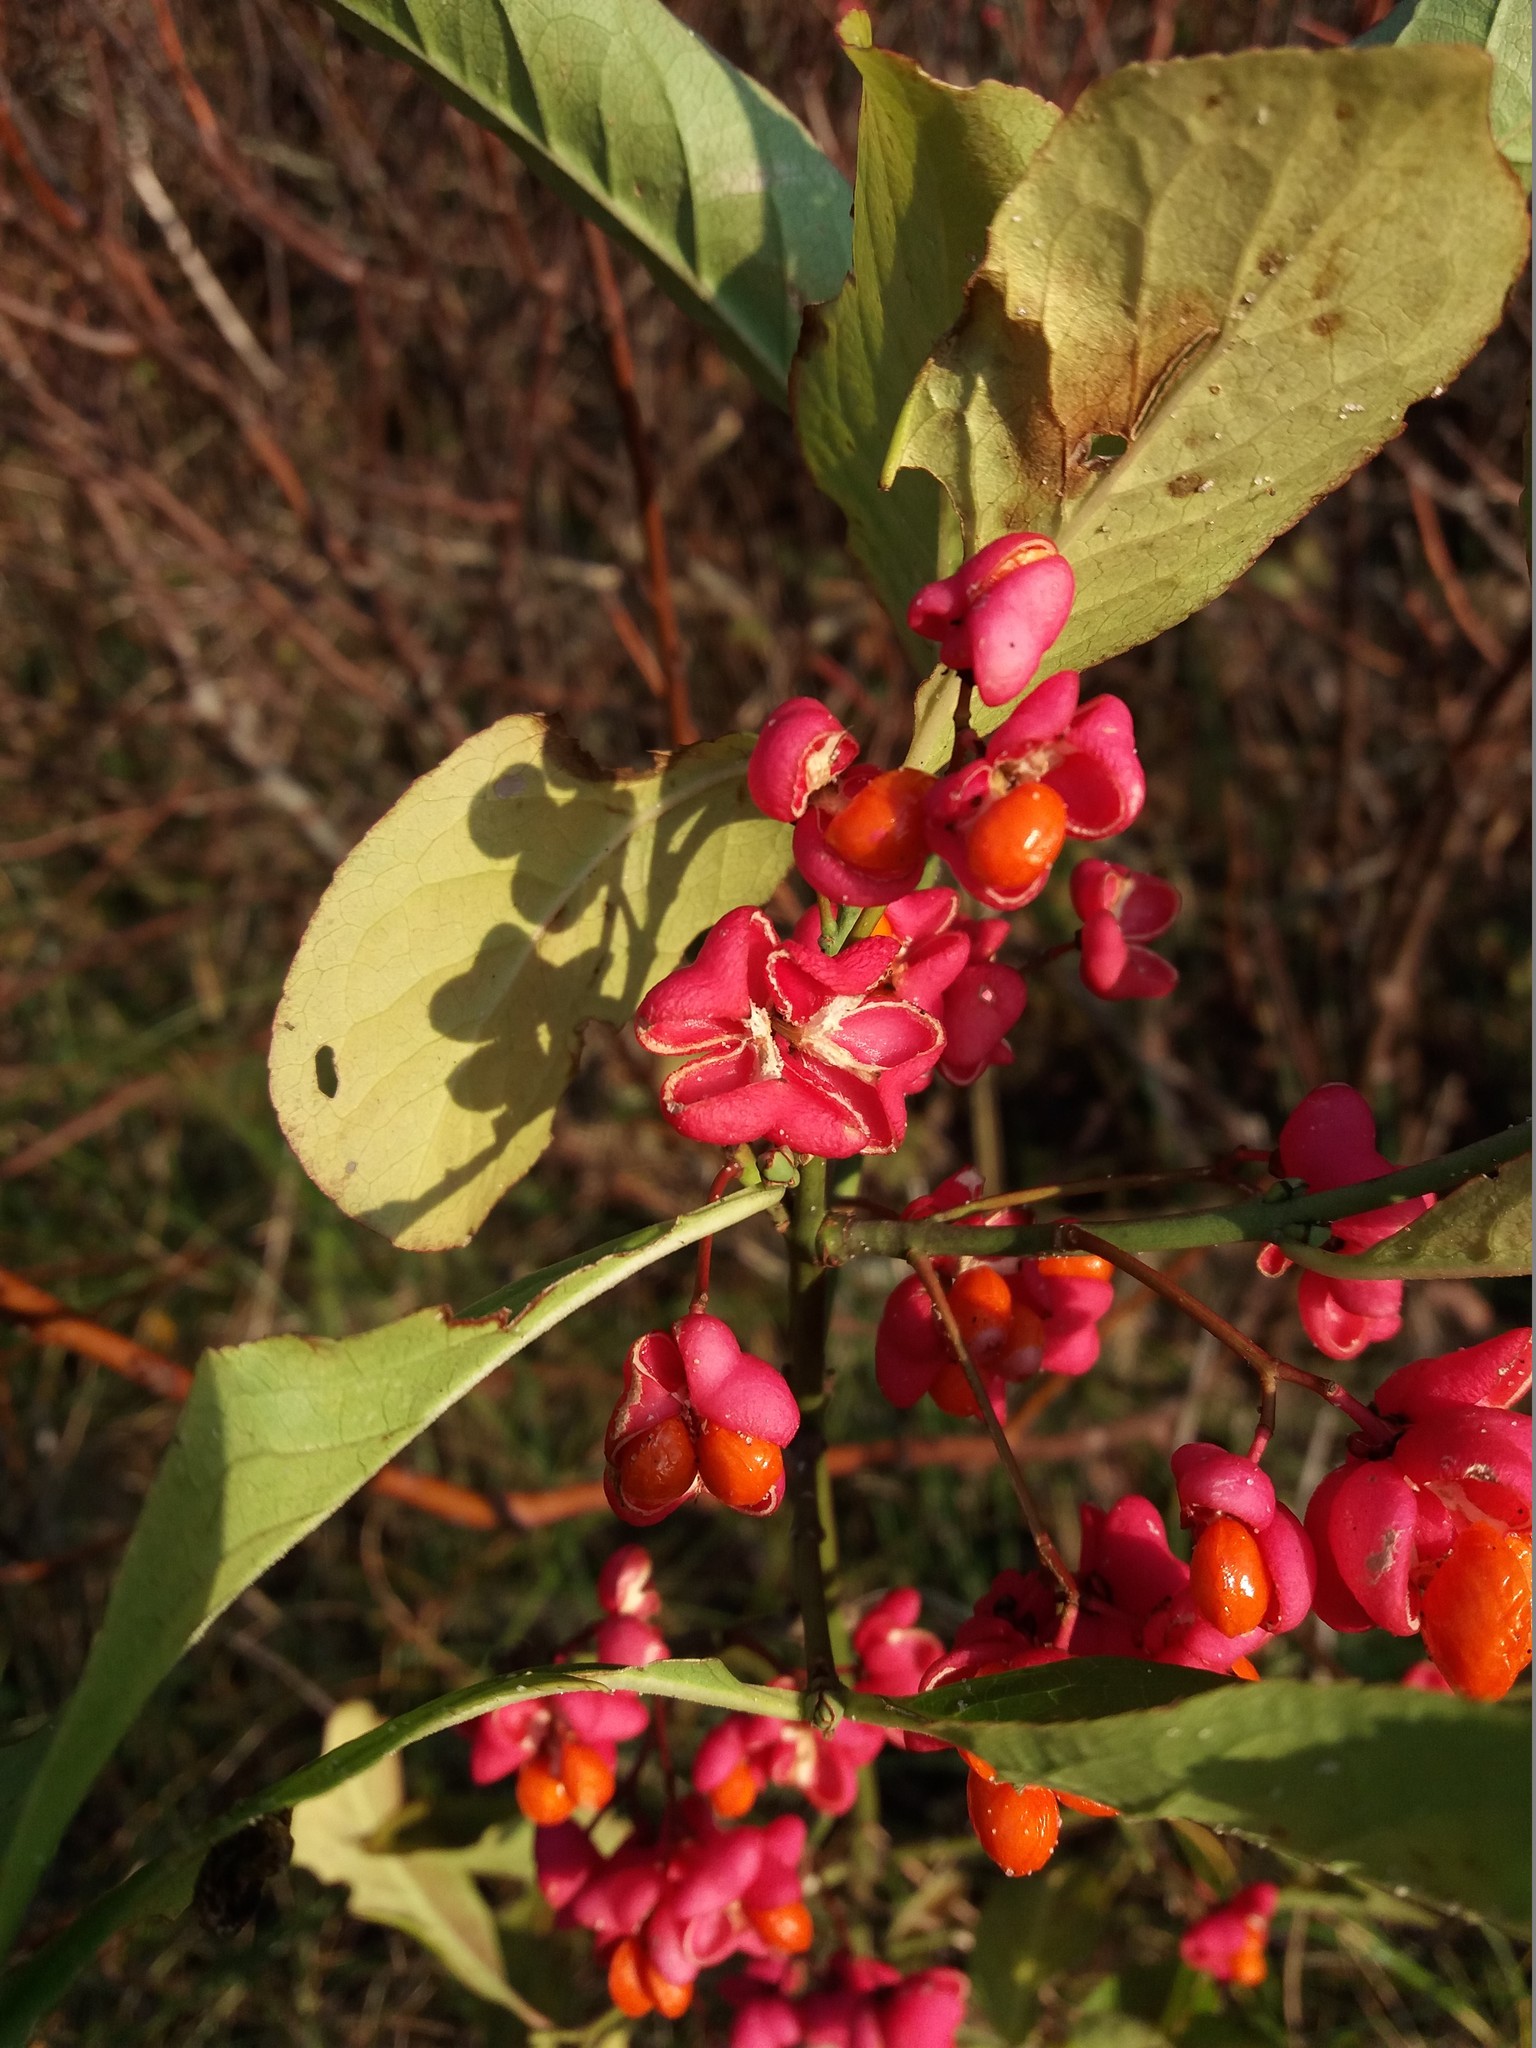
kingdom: Plantae
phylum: Tracheophyta
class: Magnoliopsida
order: Celastrales
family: Celastraceae
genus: Euonymus
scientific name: Euonymus europaeus
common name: Spindle
